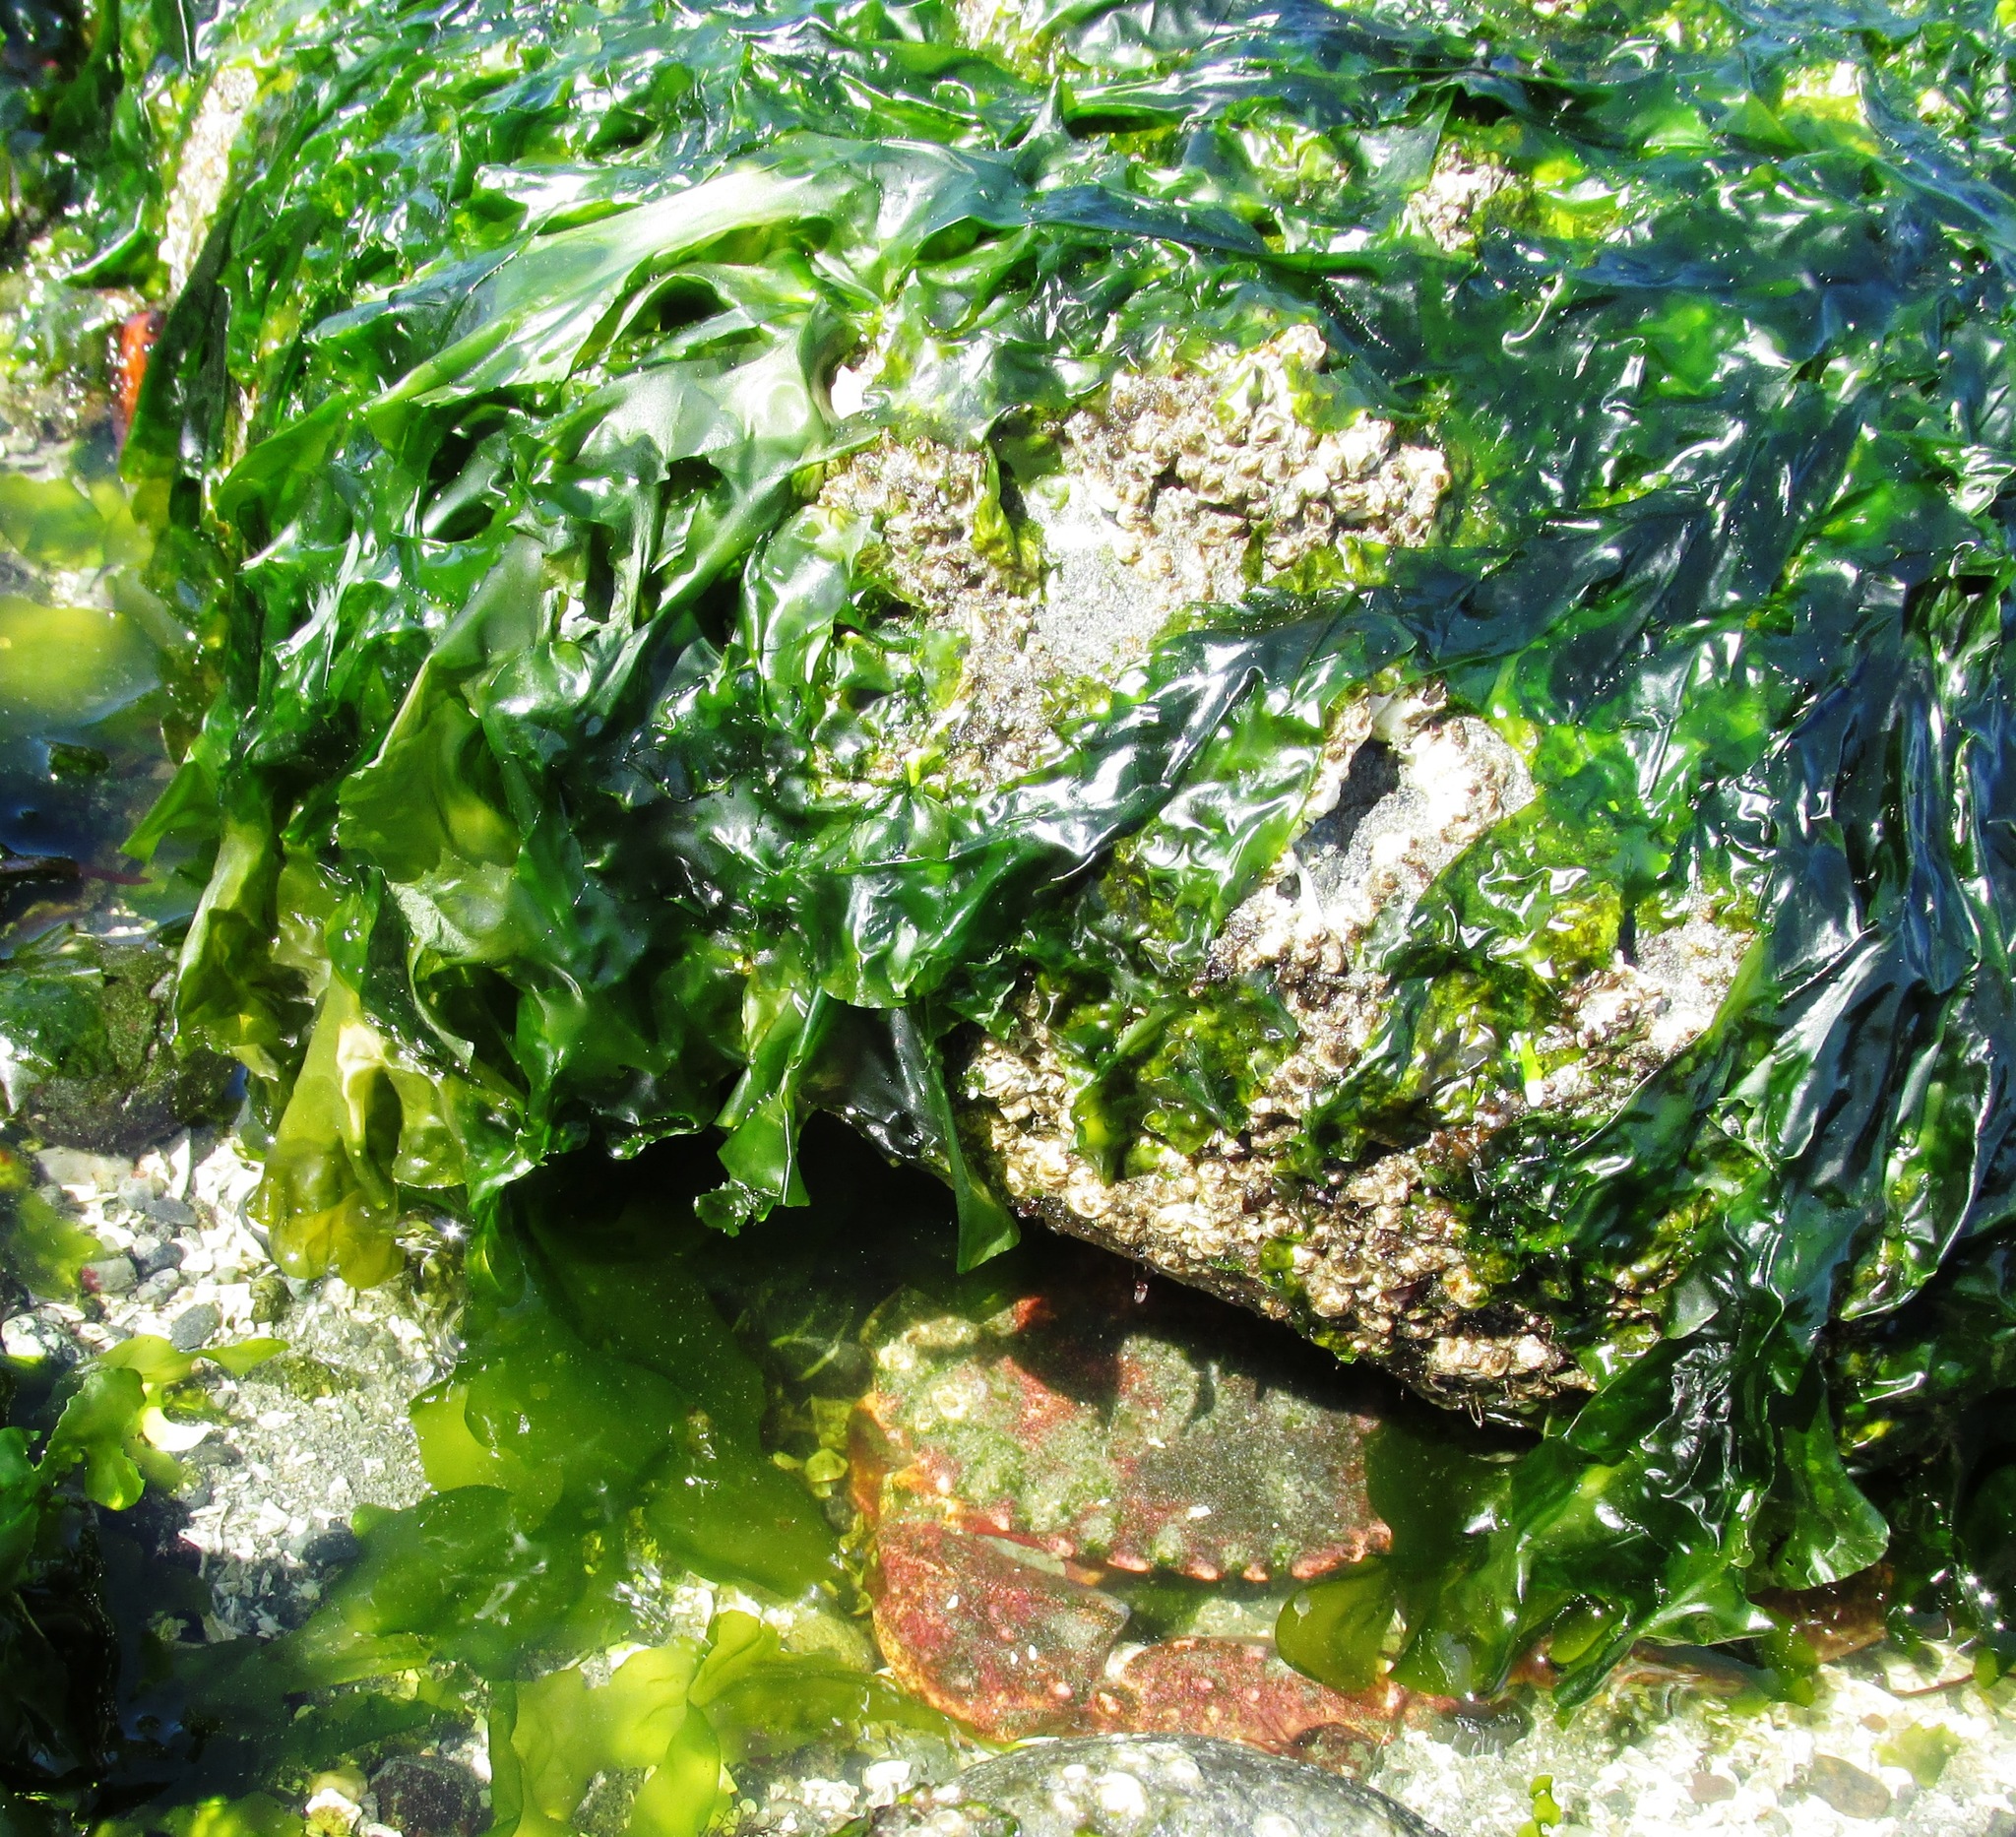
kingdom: Animalia
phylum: Arthropoda
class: Malacostraca
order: Decapoda
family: Cancridae
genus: Cancer
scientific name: Cancer productus
